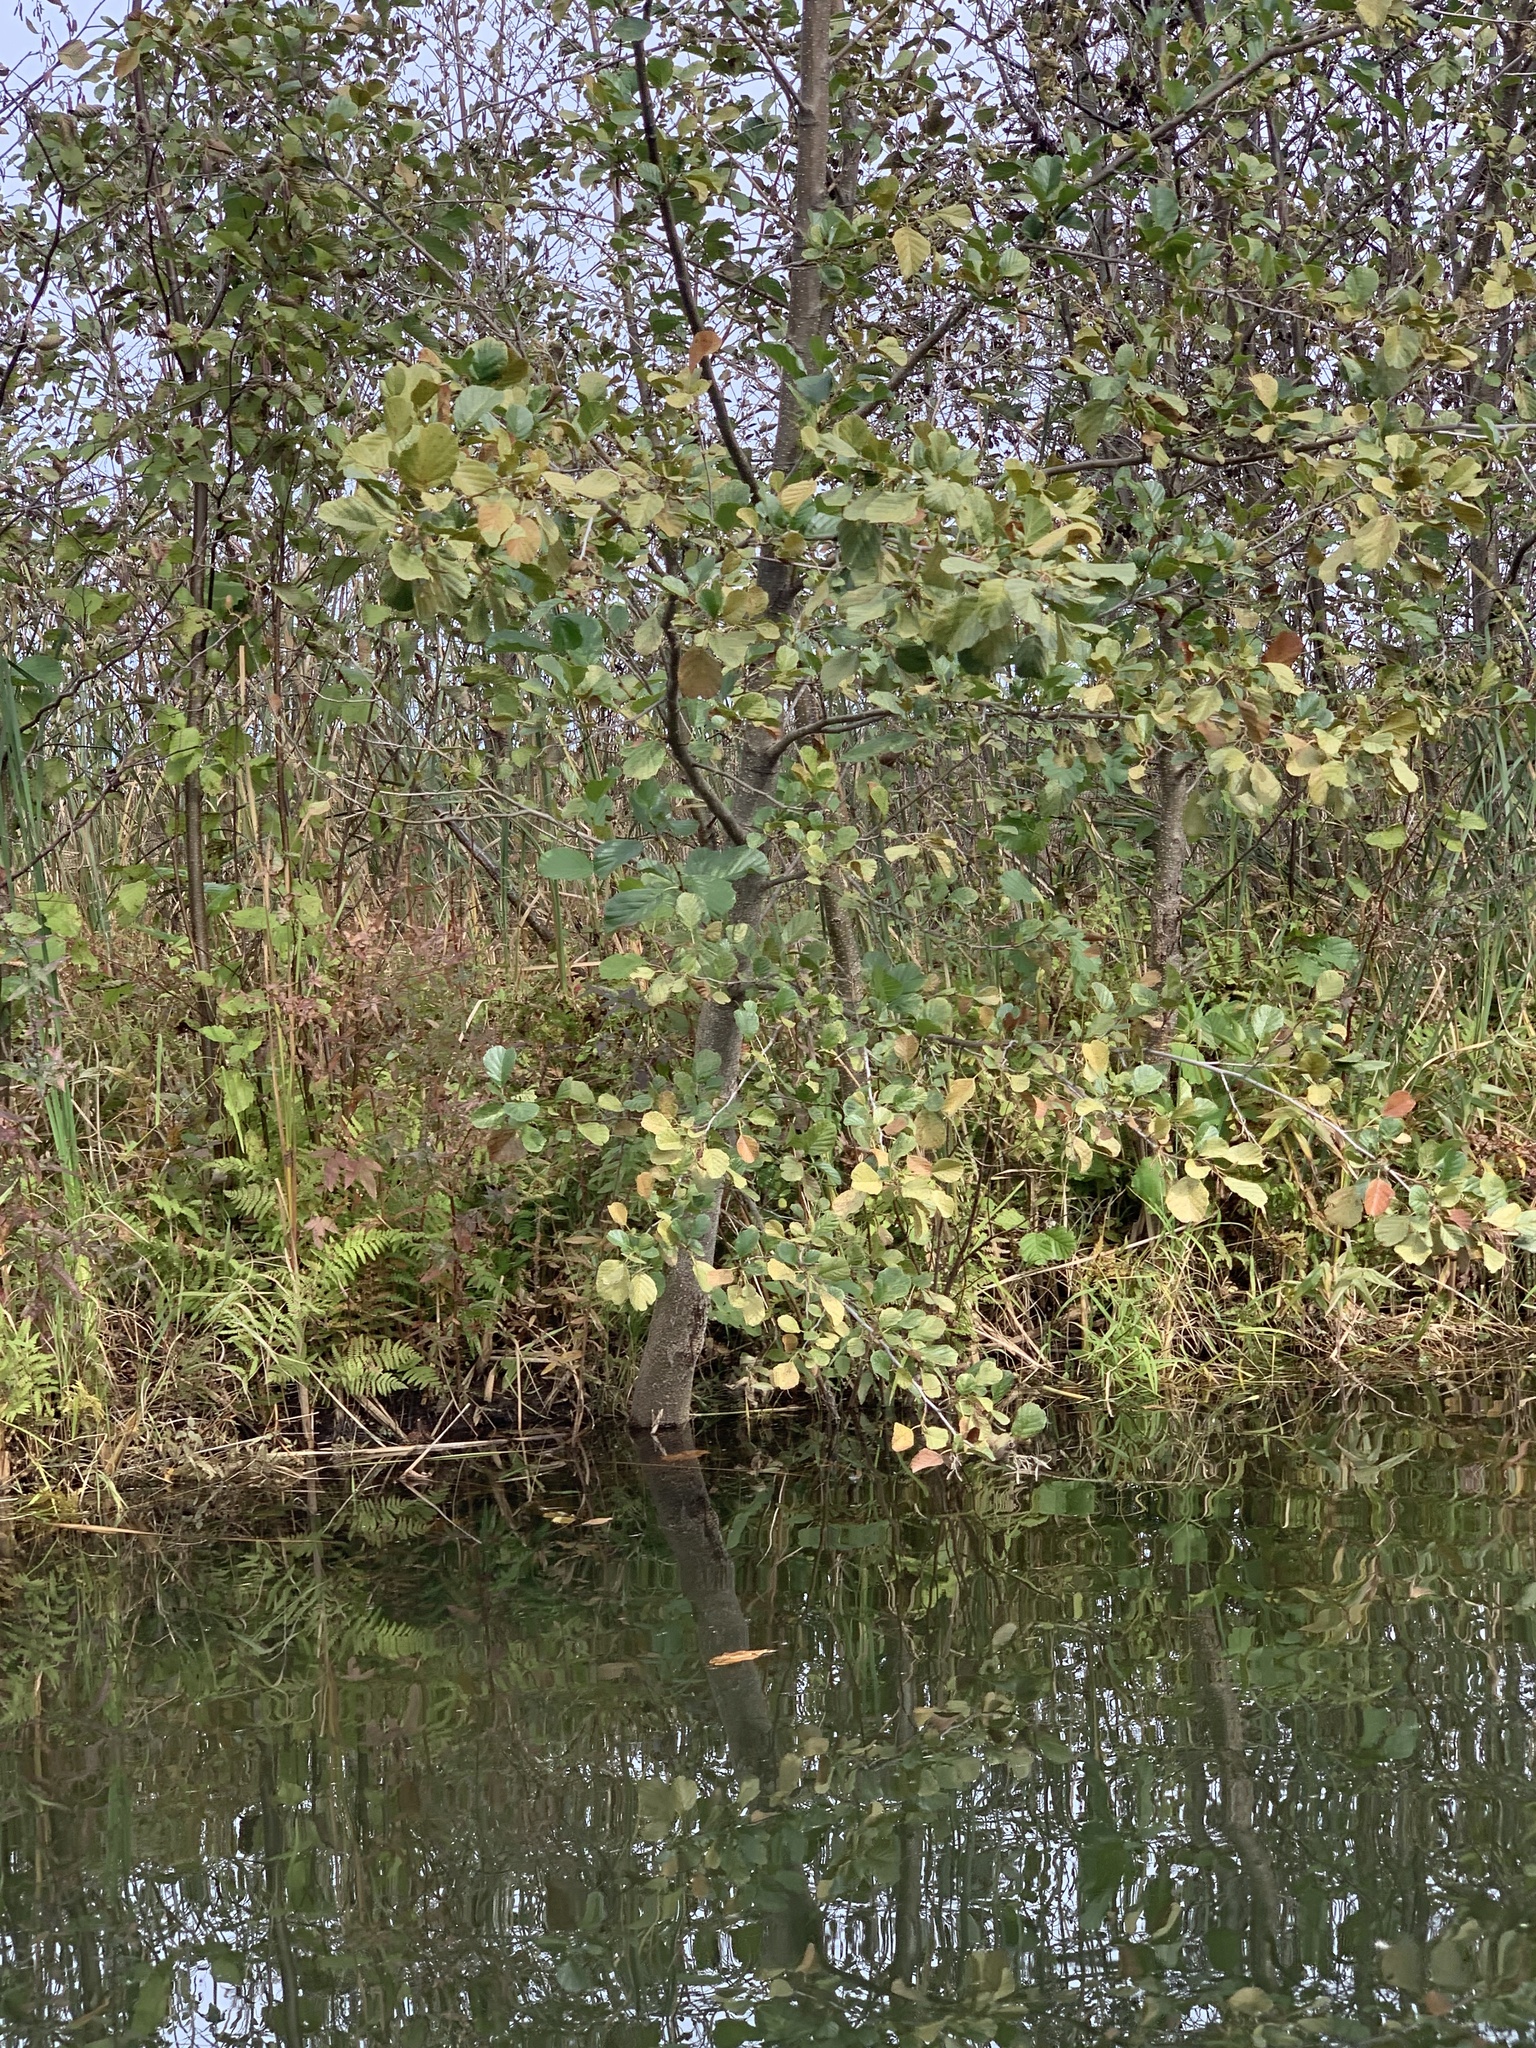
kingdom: Plantae
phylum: Tracheophyta
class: Magnoliopsida
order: Fagales
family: Betulaceae
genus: Alnus
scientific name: Alnus glutinosa
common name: Black alder
